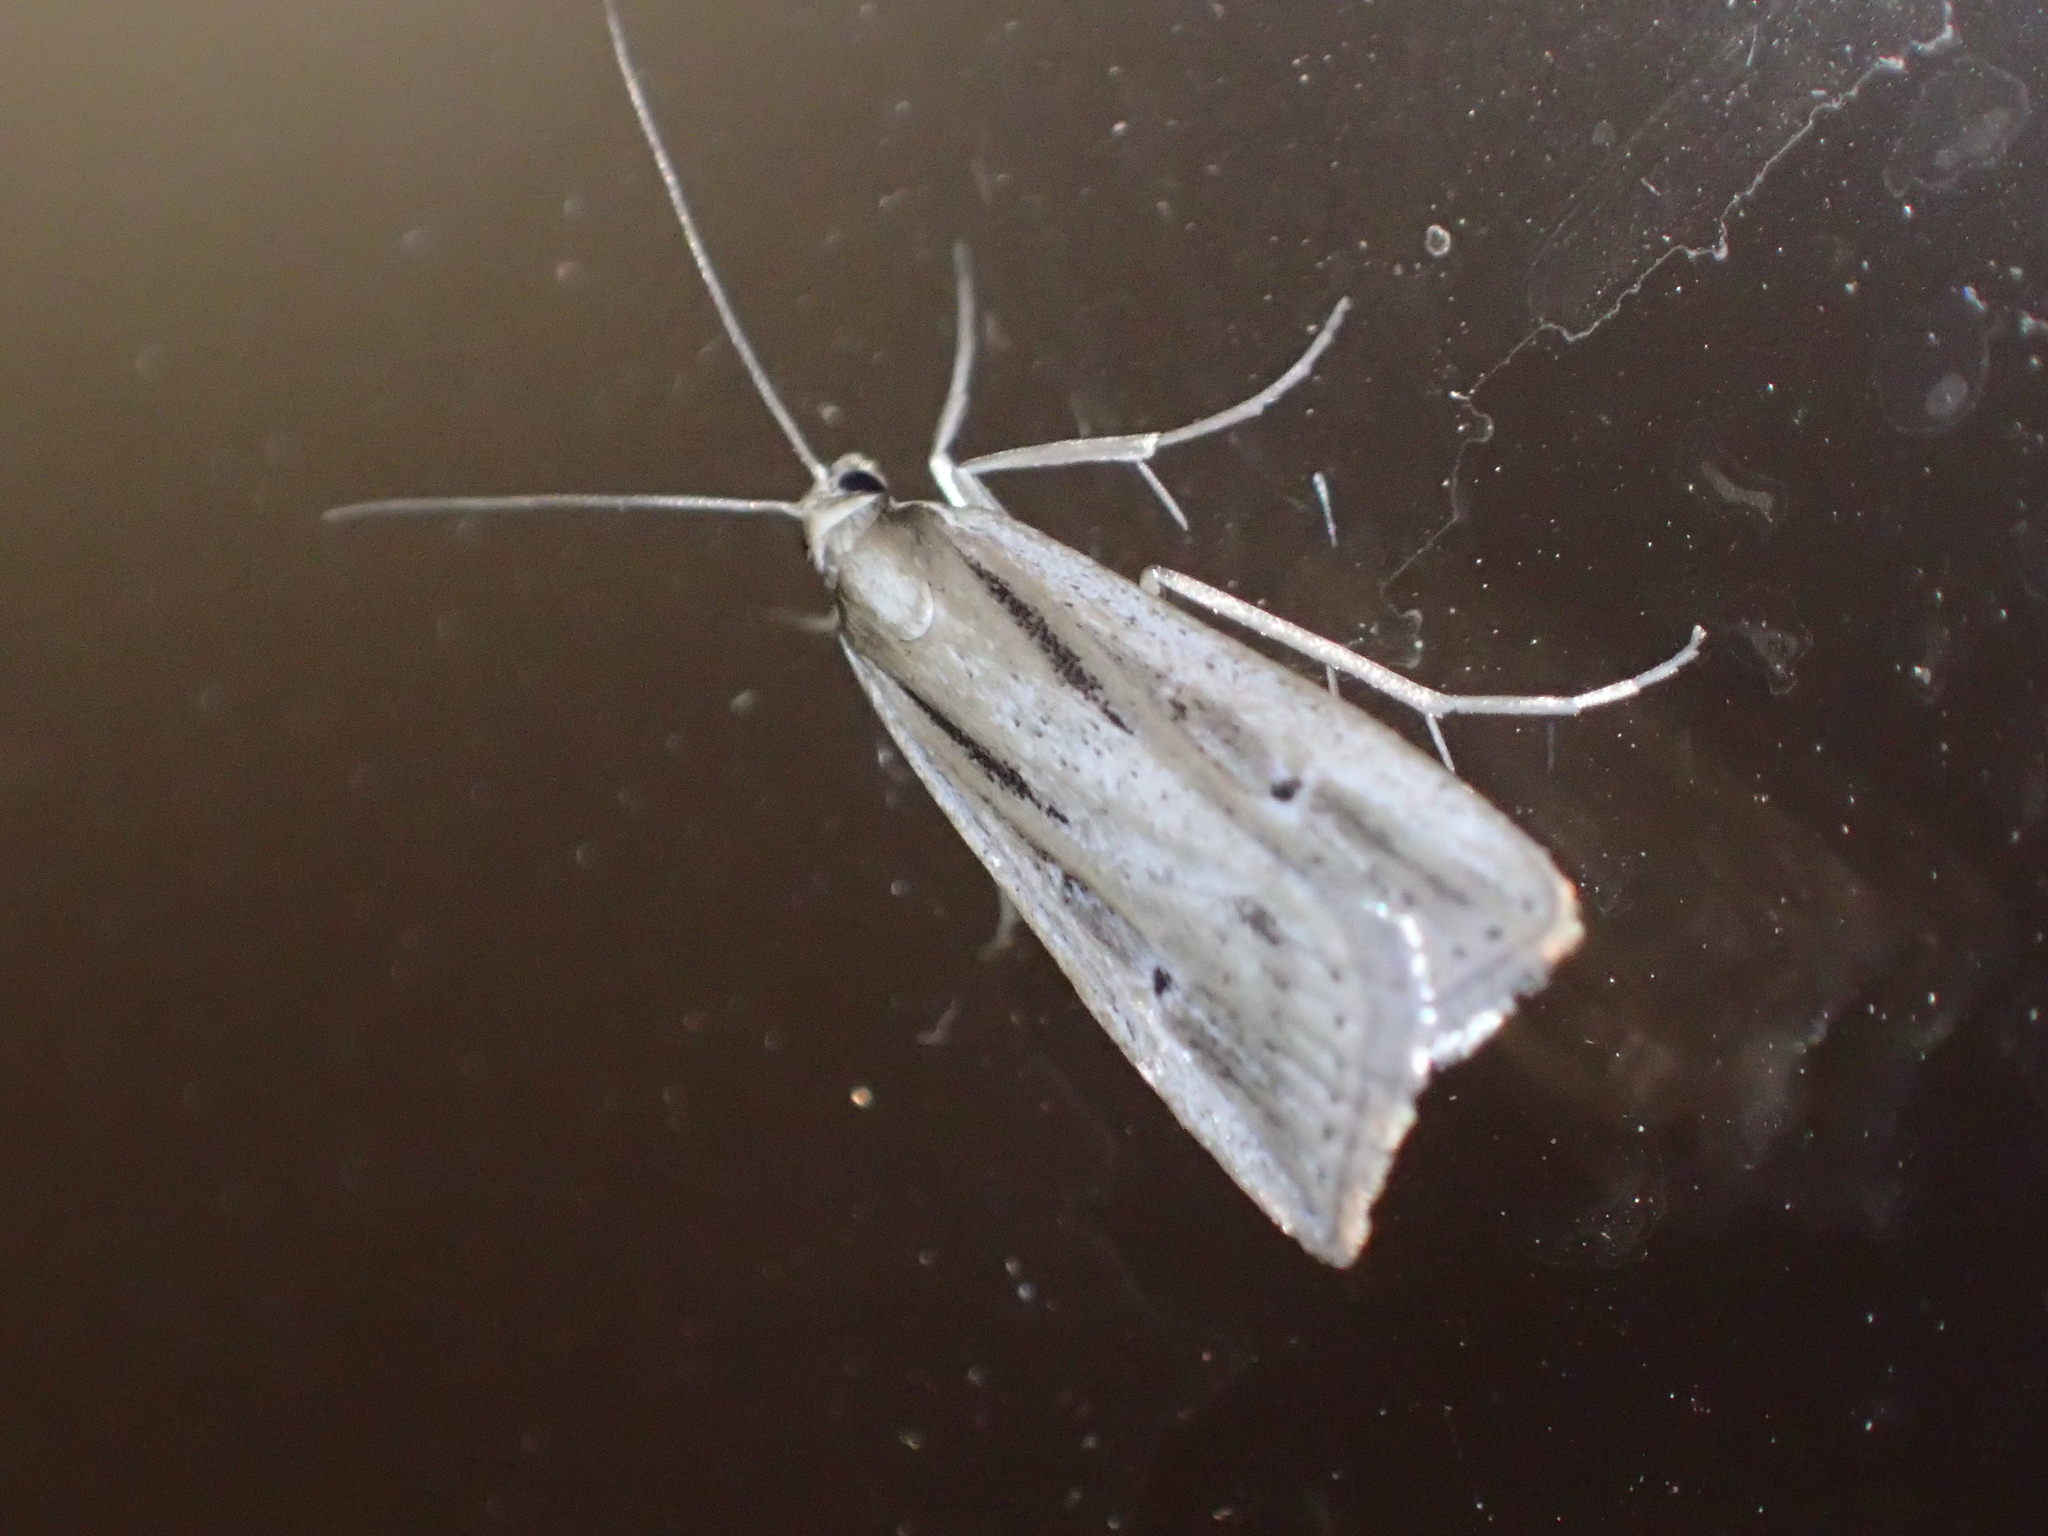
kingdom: Animalia
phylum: Arthropoda
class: Insecta
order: Lepidoptera
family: Crambidae
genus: Eudonia
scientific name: Eudonia sabulosella
